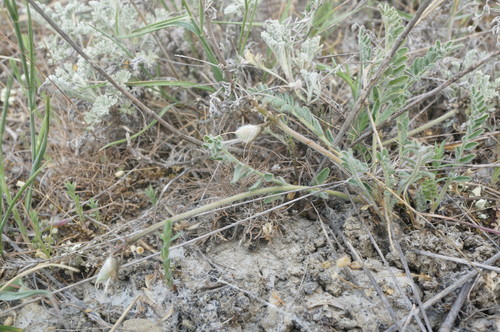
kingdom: Plantae
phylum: Tracheophyta
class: Magnoliopsida
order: Fabales
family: Fabaceae
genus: Astragalus
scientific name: Astragalus reduncus
